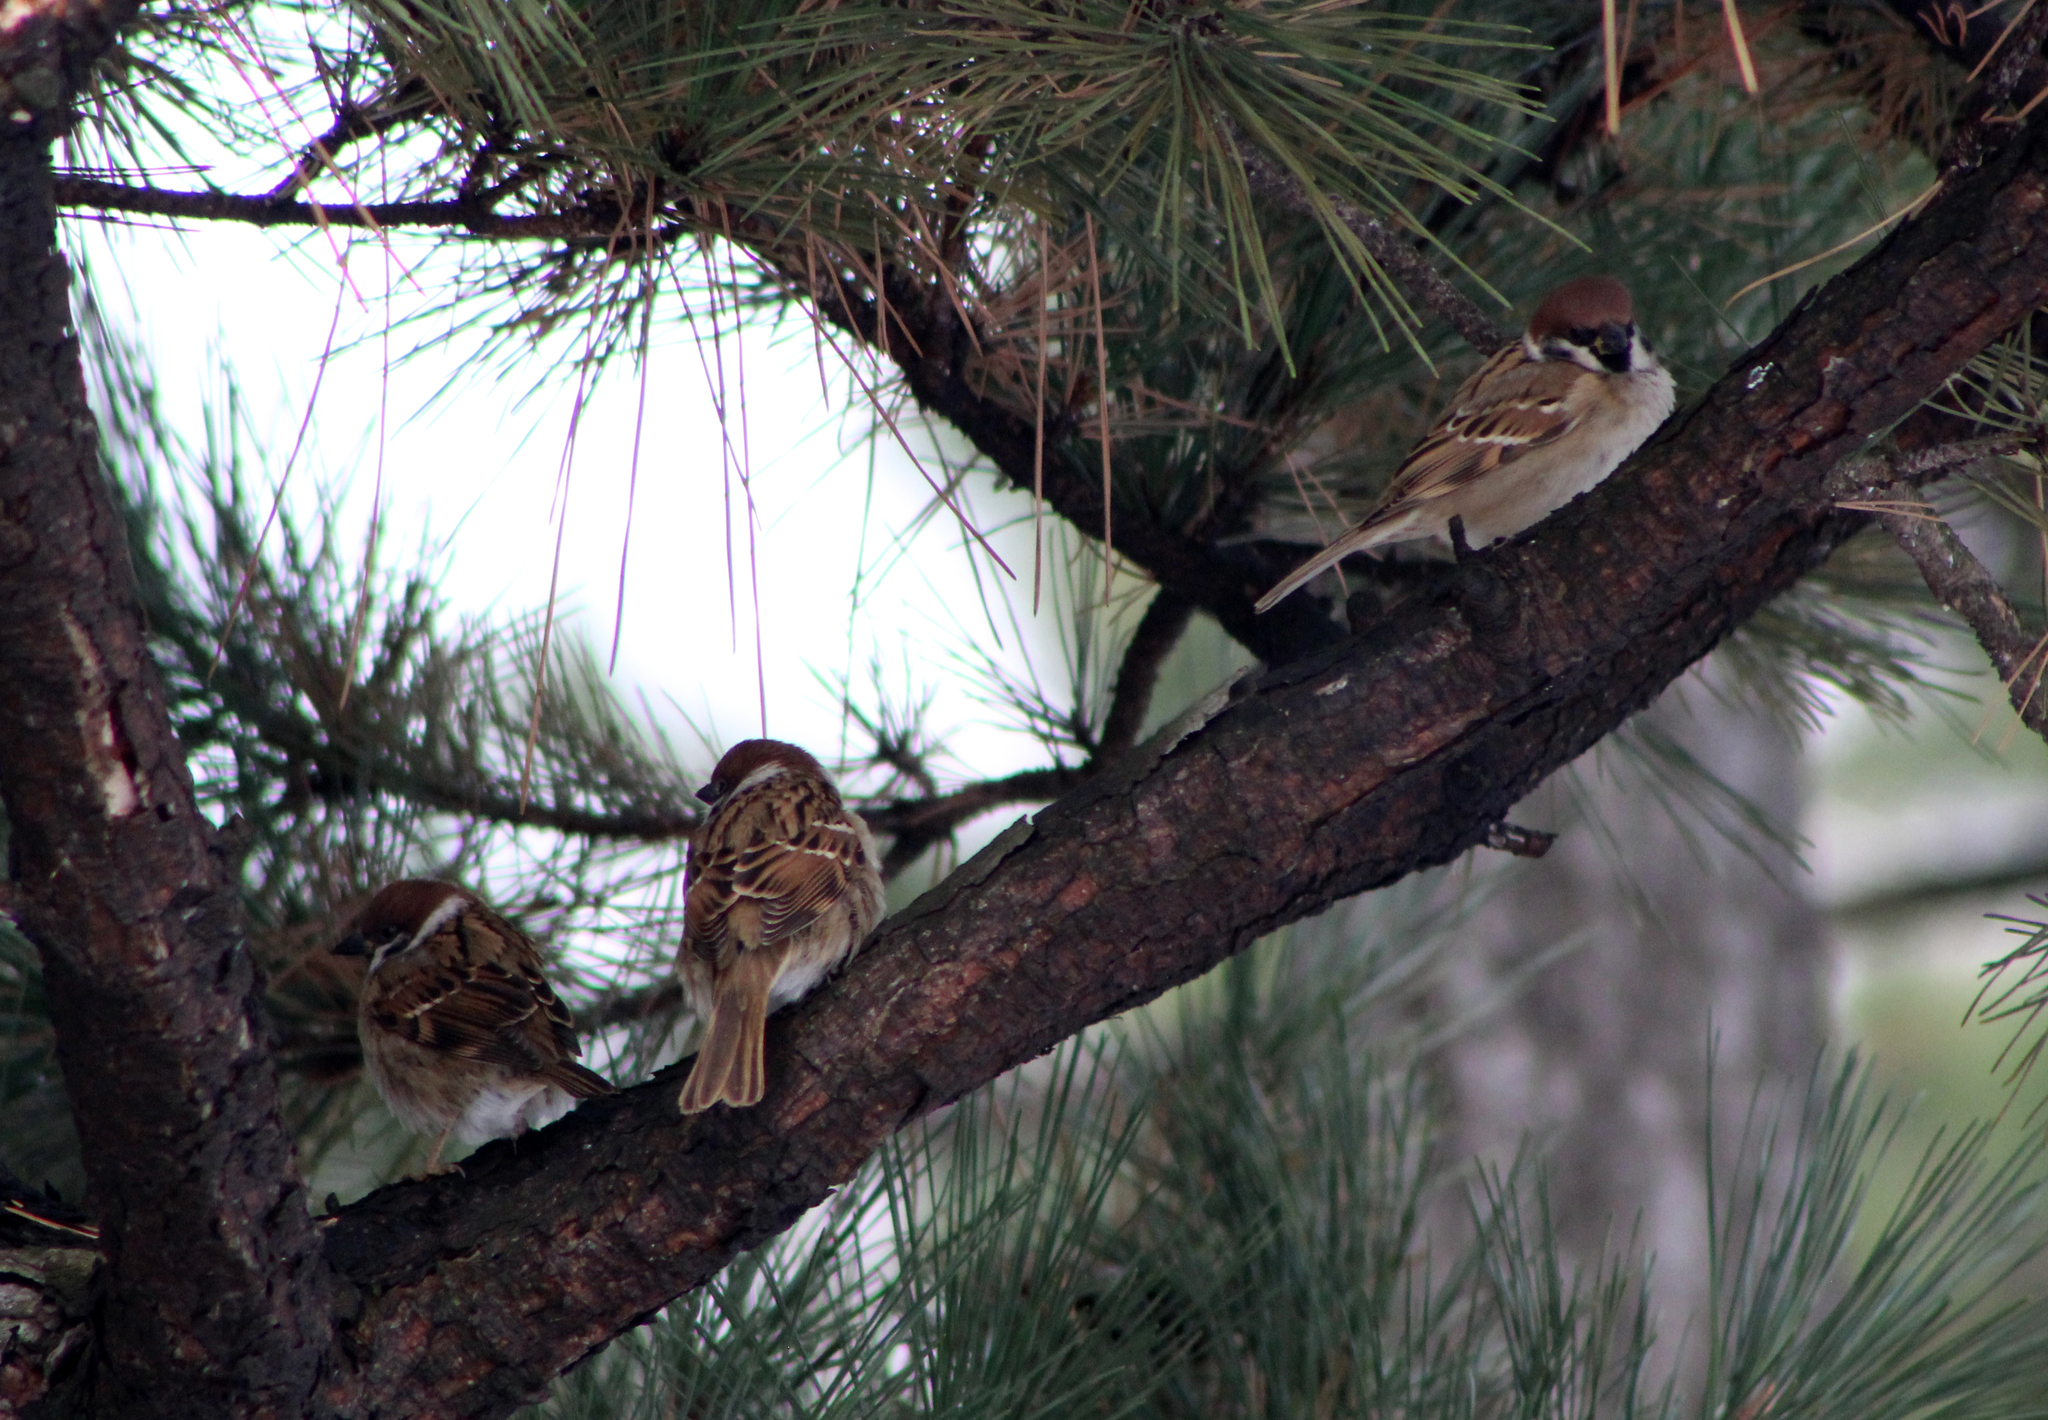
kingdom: Animalia
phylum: Chordata
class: Aves
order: Passeriformes
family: Passeridae
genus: Passer
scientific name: Passer montanus
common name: Eurasian tree sparrow
